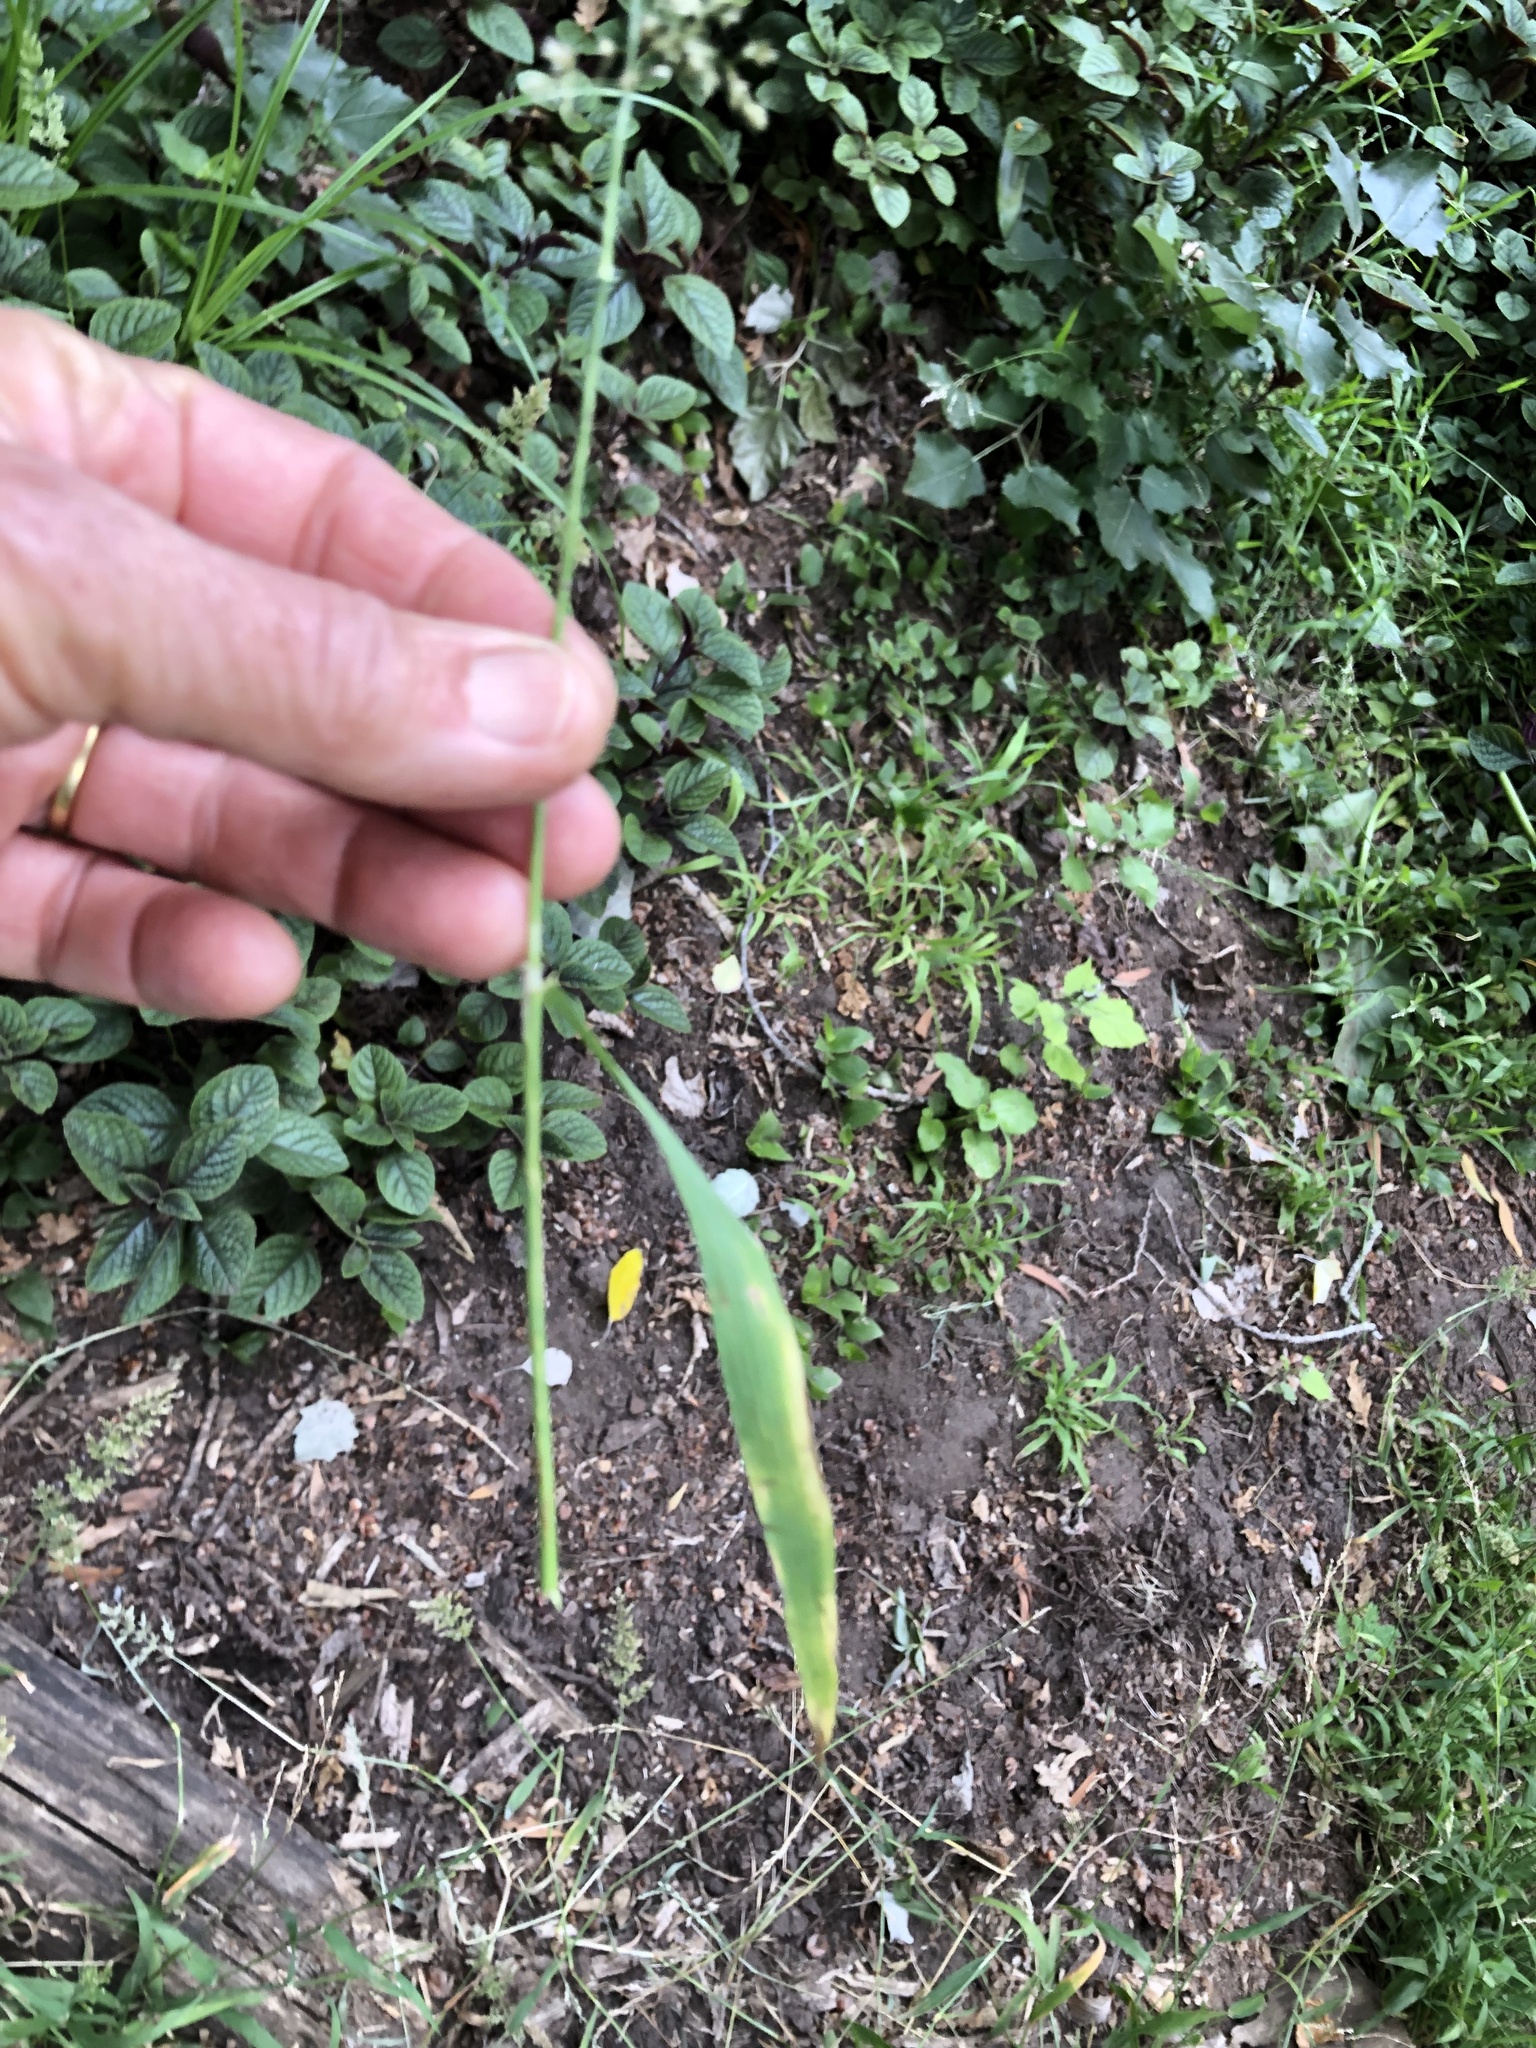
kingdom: Plantae
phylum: Tracheophyta
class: Liliopsida
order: Poales
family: Poaceae
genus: Polypogon
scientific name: Polypogon viridis
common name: Water bent
